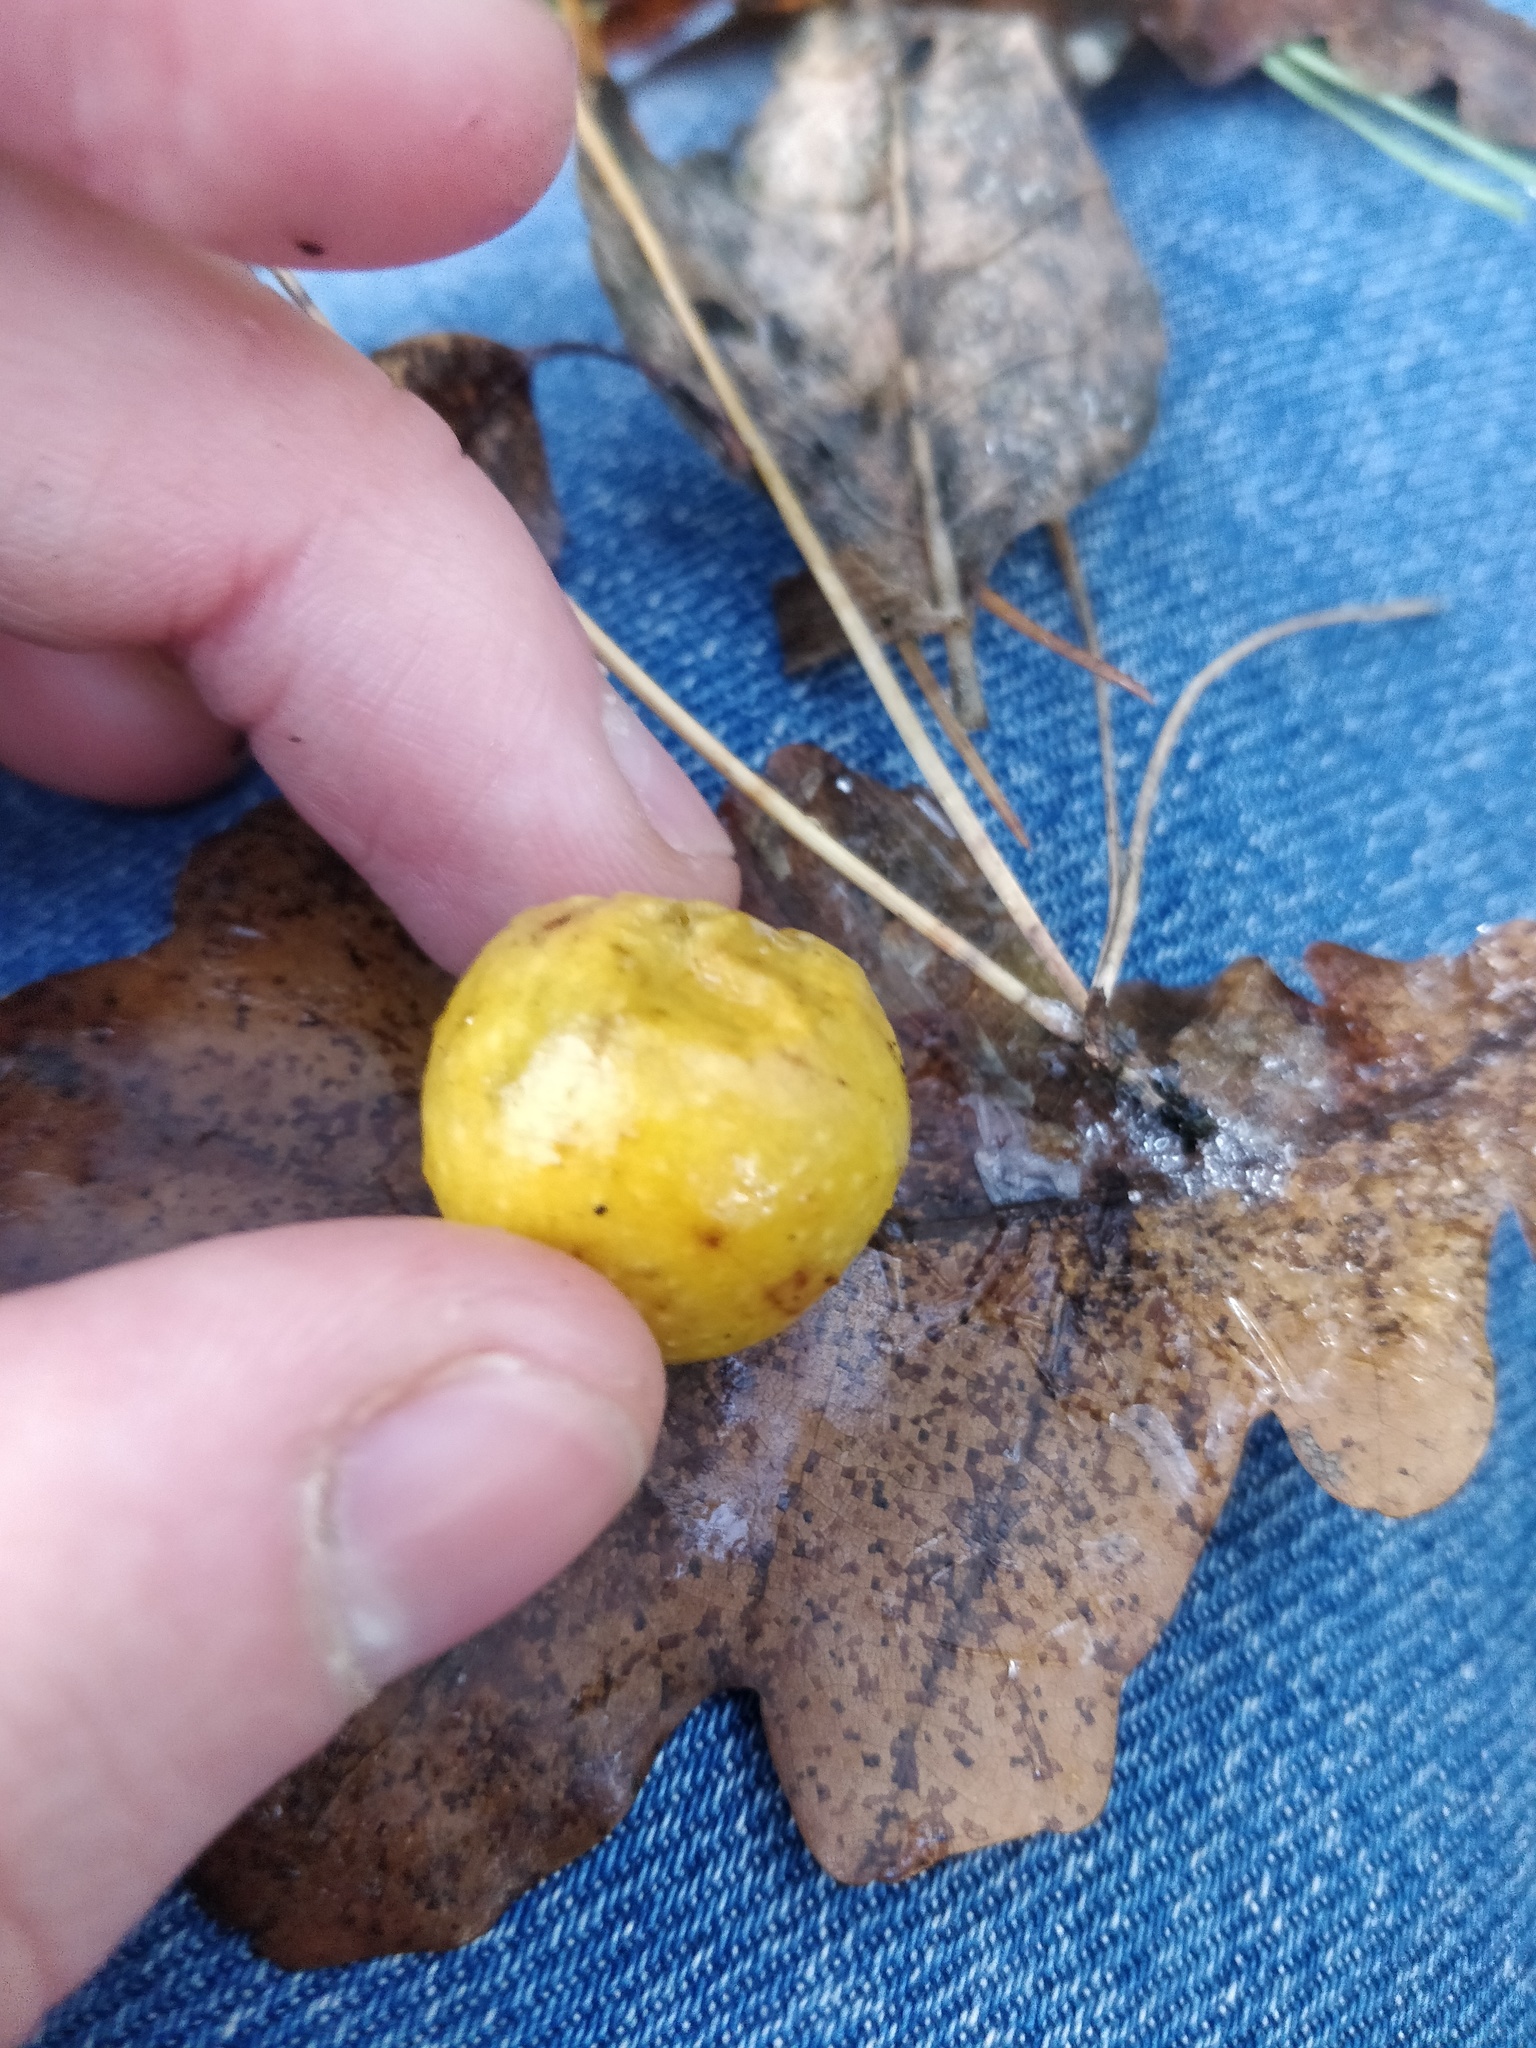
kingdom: Animalia
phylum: Arthropoda
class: Insecta
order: Hymenoptera
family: Cynipidae
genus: Cynips
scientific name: Cynips quercusfolii
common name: Cherry gall
